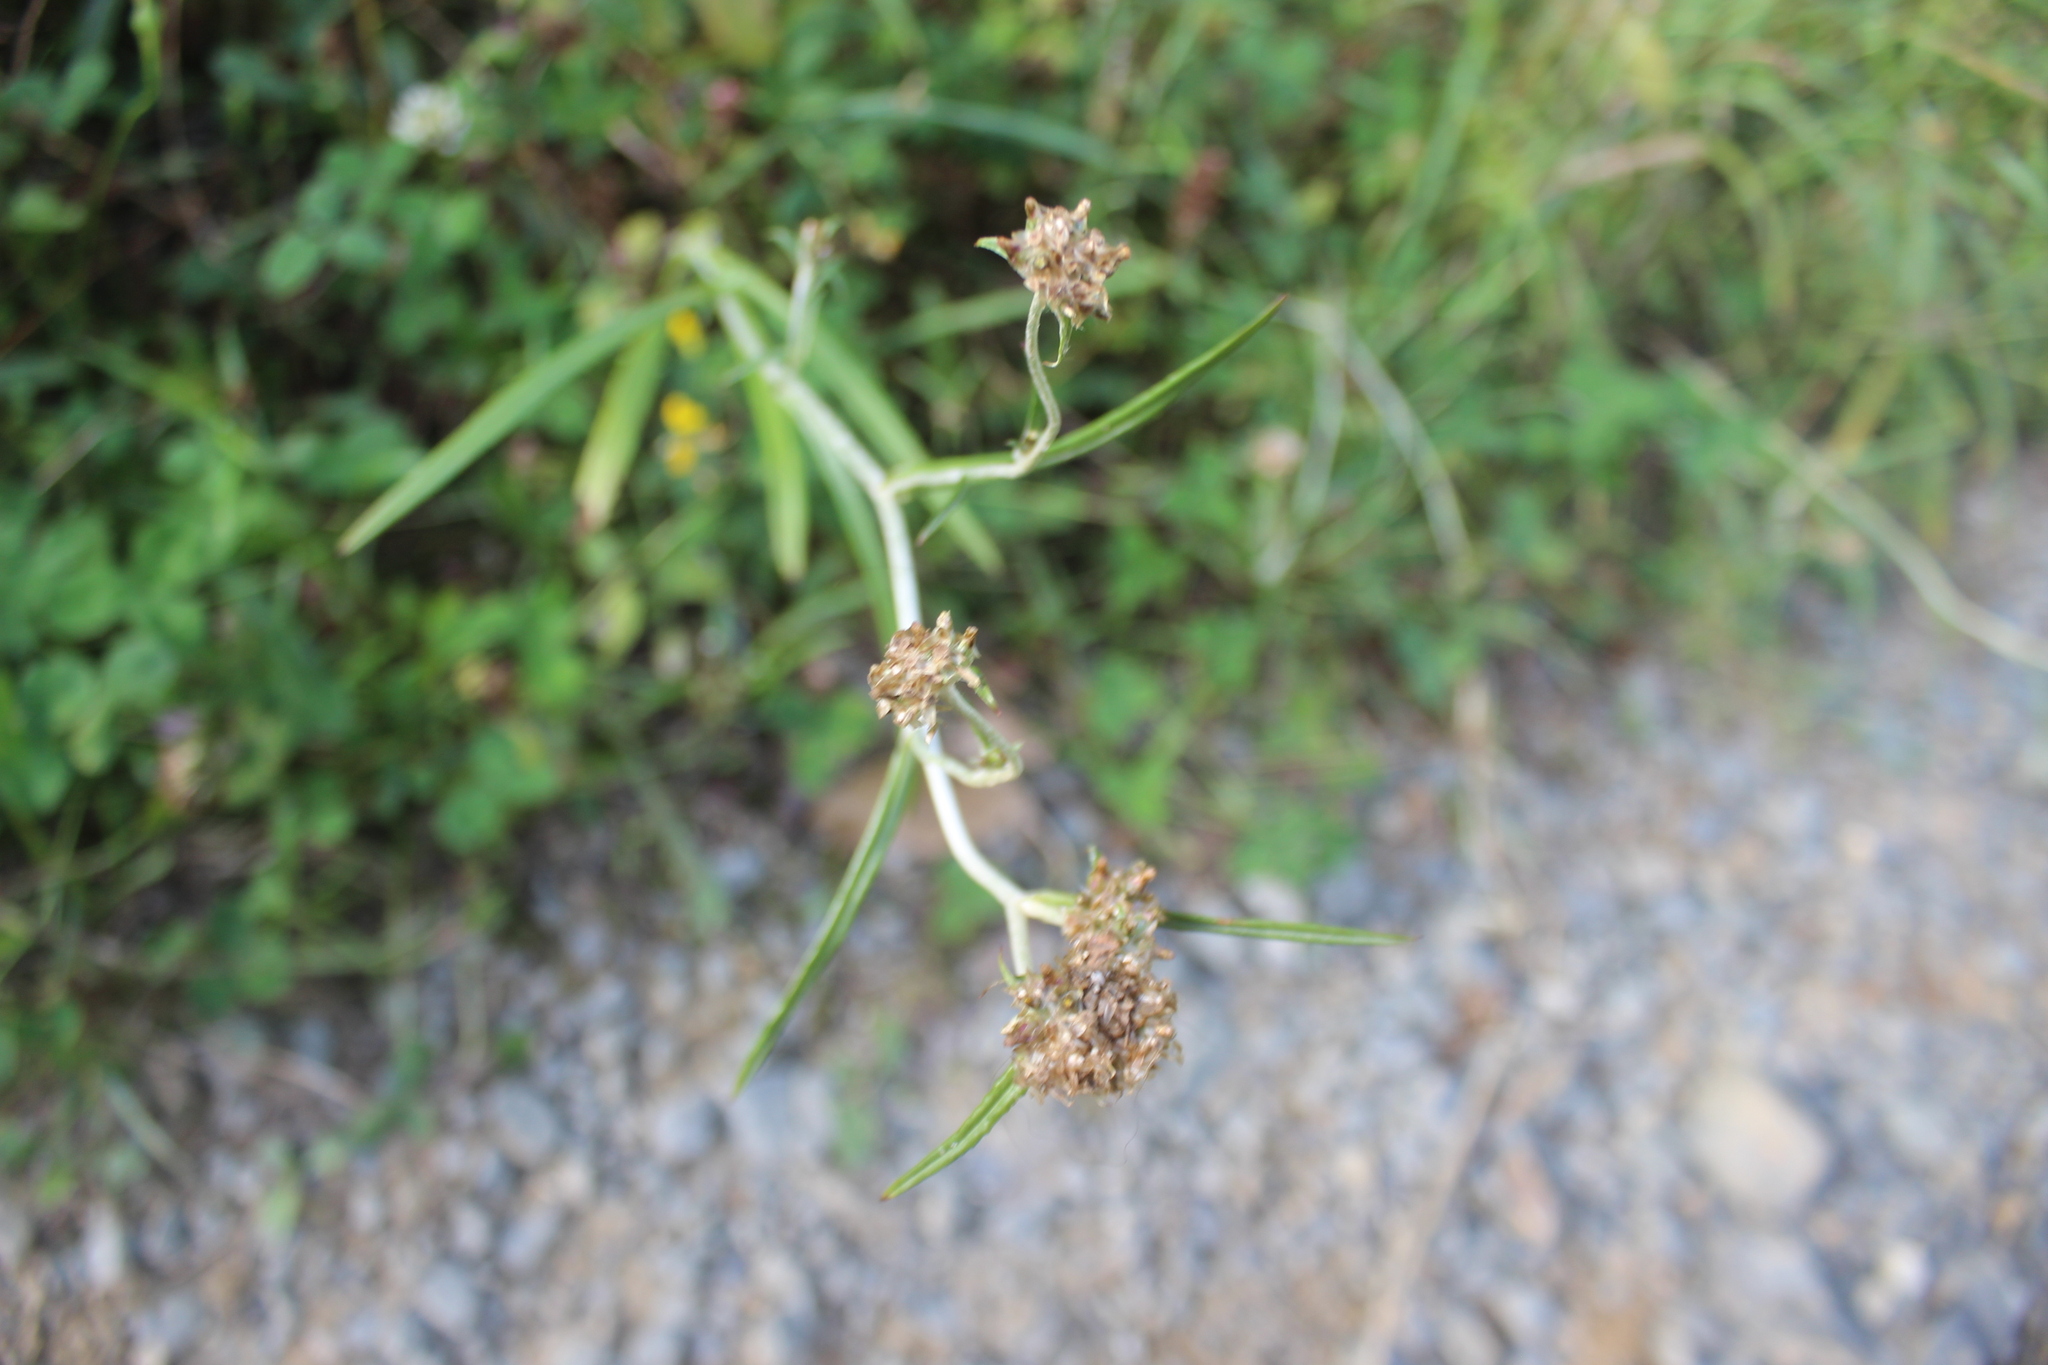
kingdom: Plantae
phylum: Tracheophyta
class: Magnoliopsida
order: Asterales
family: Asteraceae
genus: Euchiton
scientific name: Euchiton sphaericus
